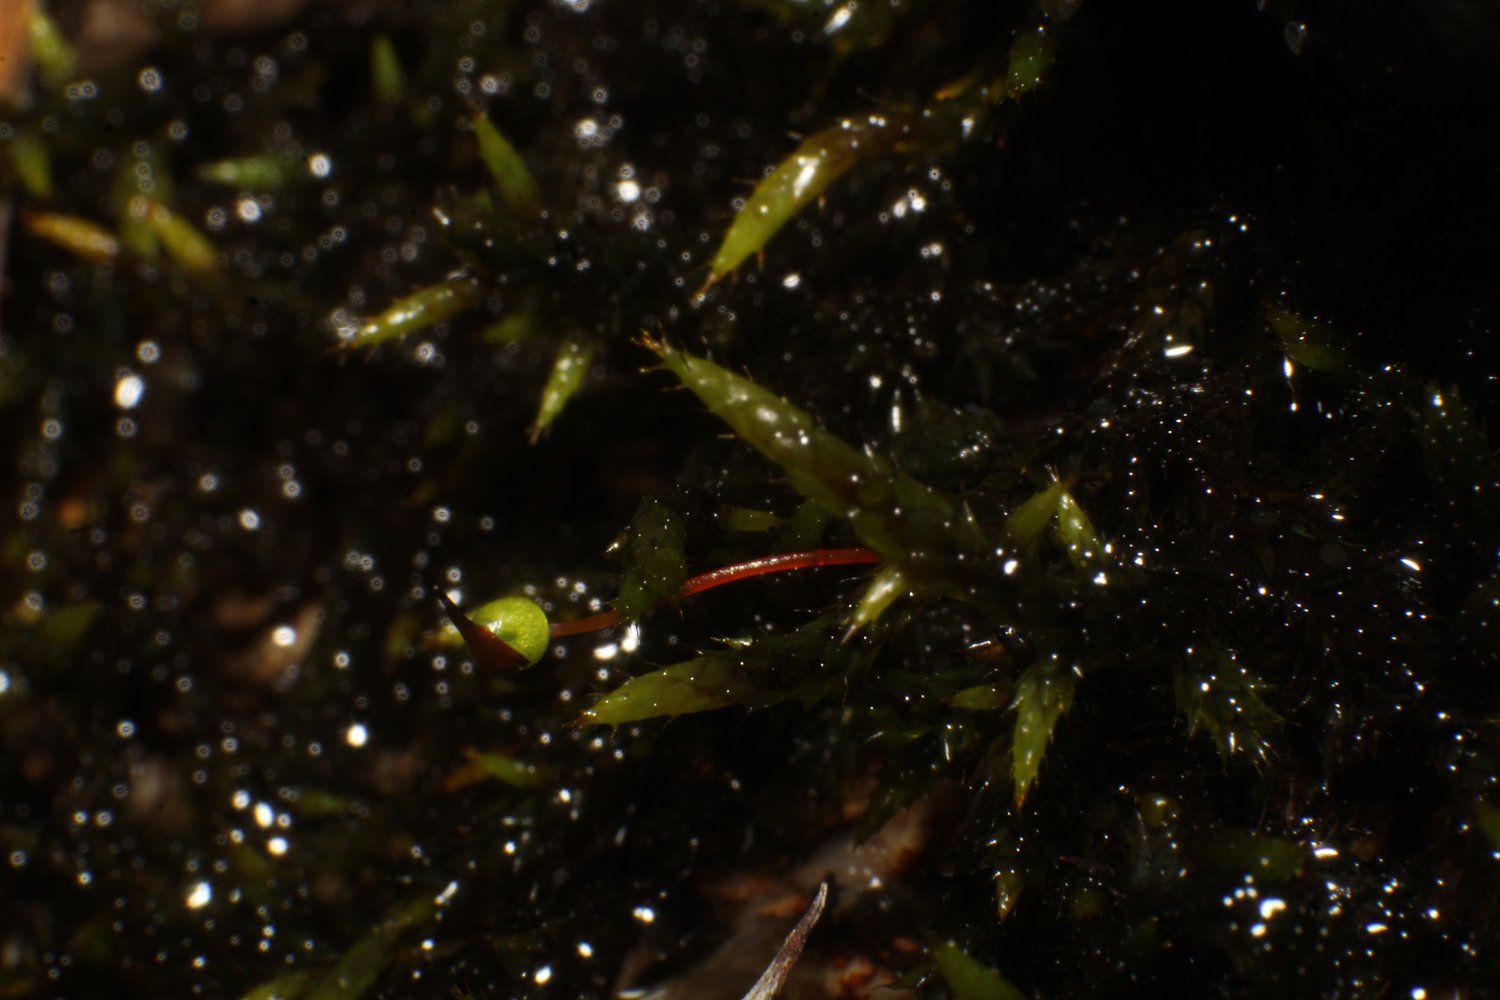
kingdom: Plantae
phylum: Bryophyta
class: Bryopsida
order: Hedwigiales
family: Hedwigiaceae
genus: Rhacocarpus
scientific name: Rhacocarpus purpurascens
